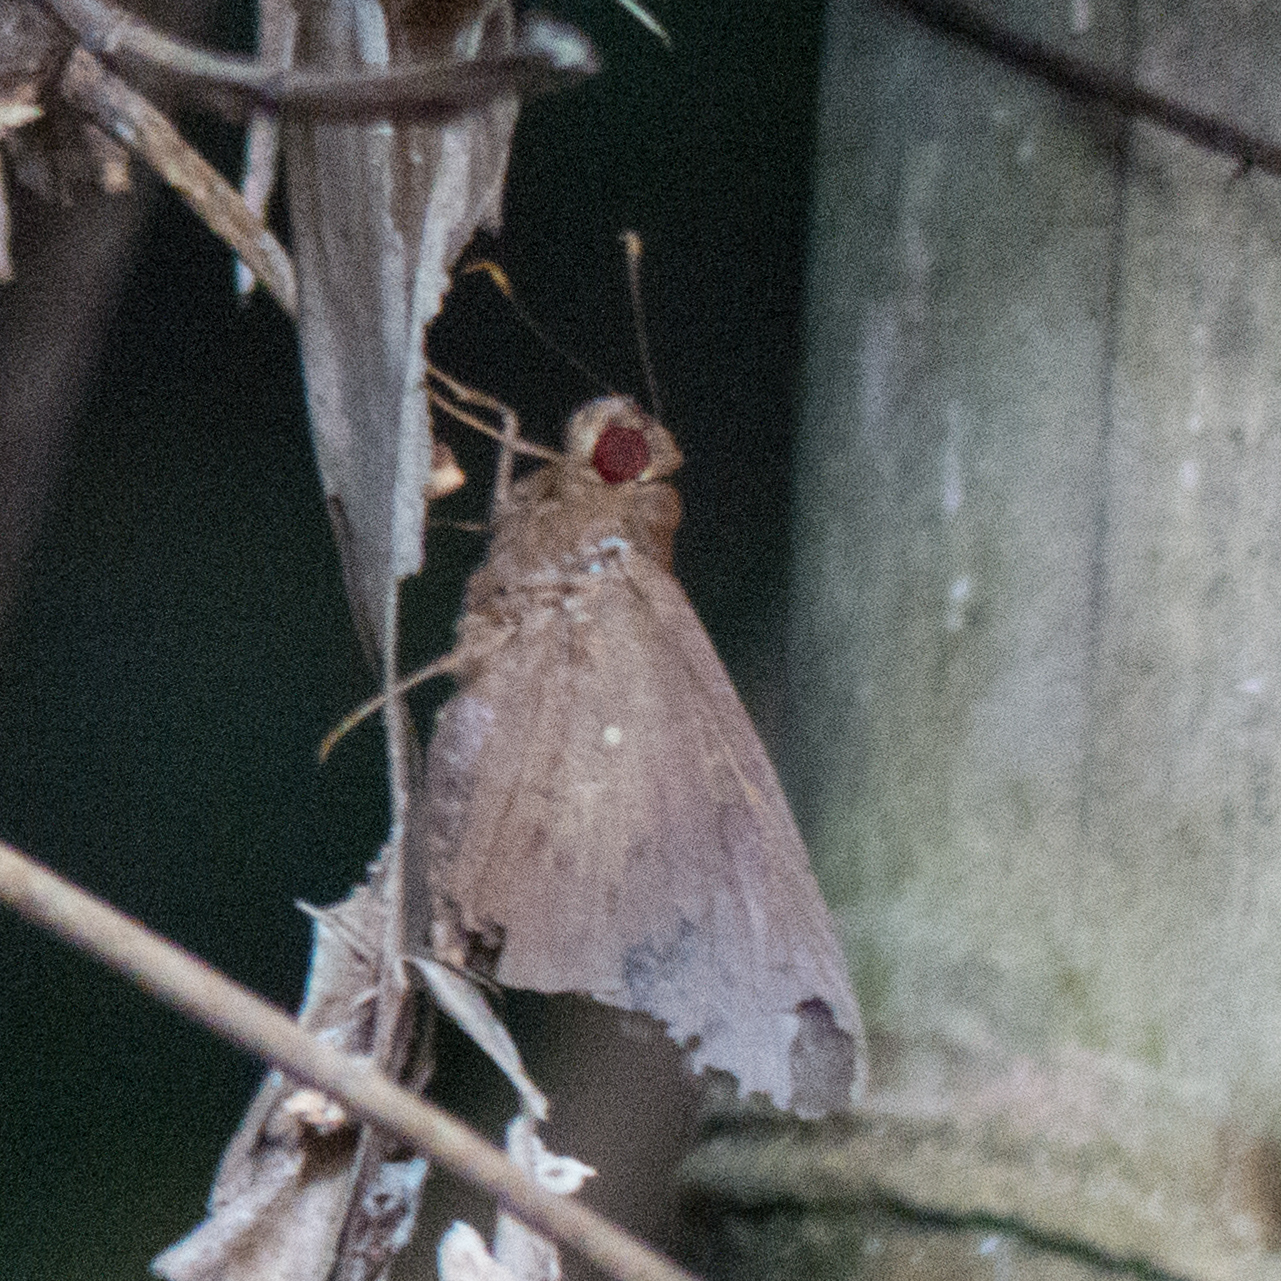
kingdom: Animalia
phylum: Arthropoda
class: Insecta
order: Lepidoptera
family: Hesperiidae
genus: Hidari
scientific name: Hidari irava
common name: Coconut skipper
